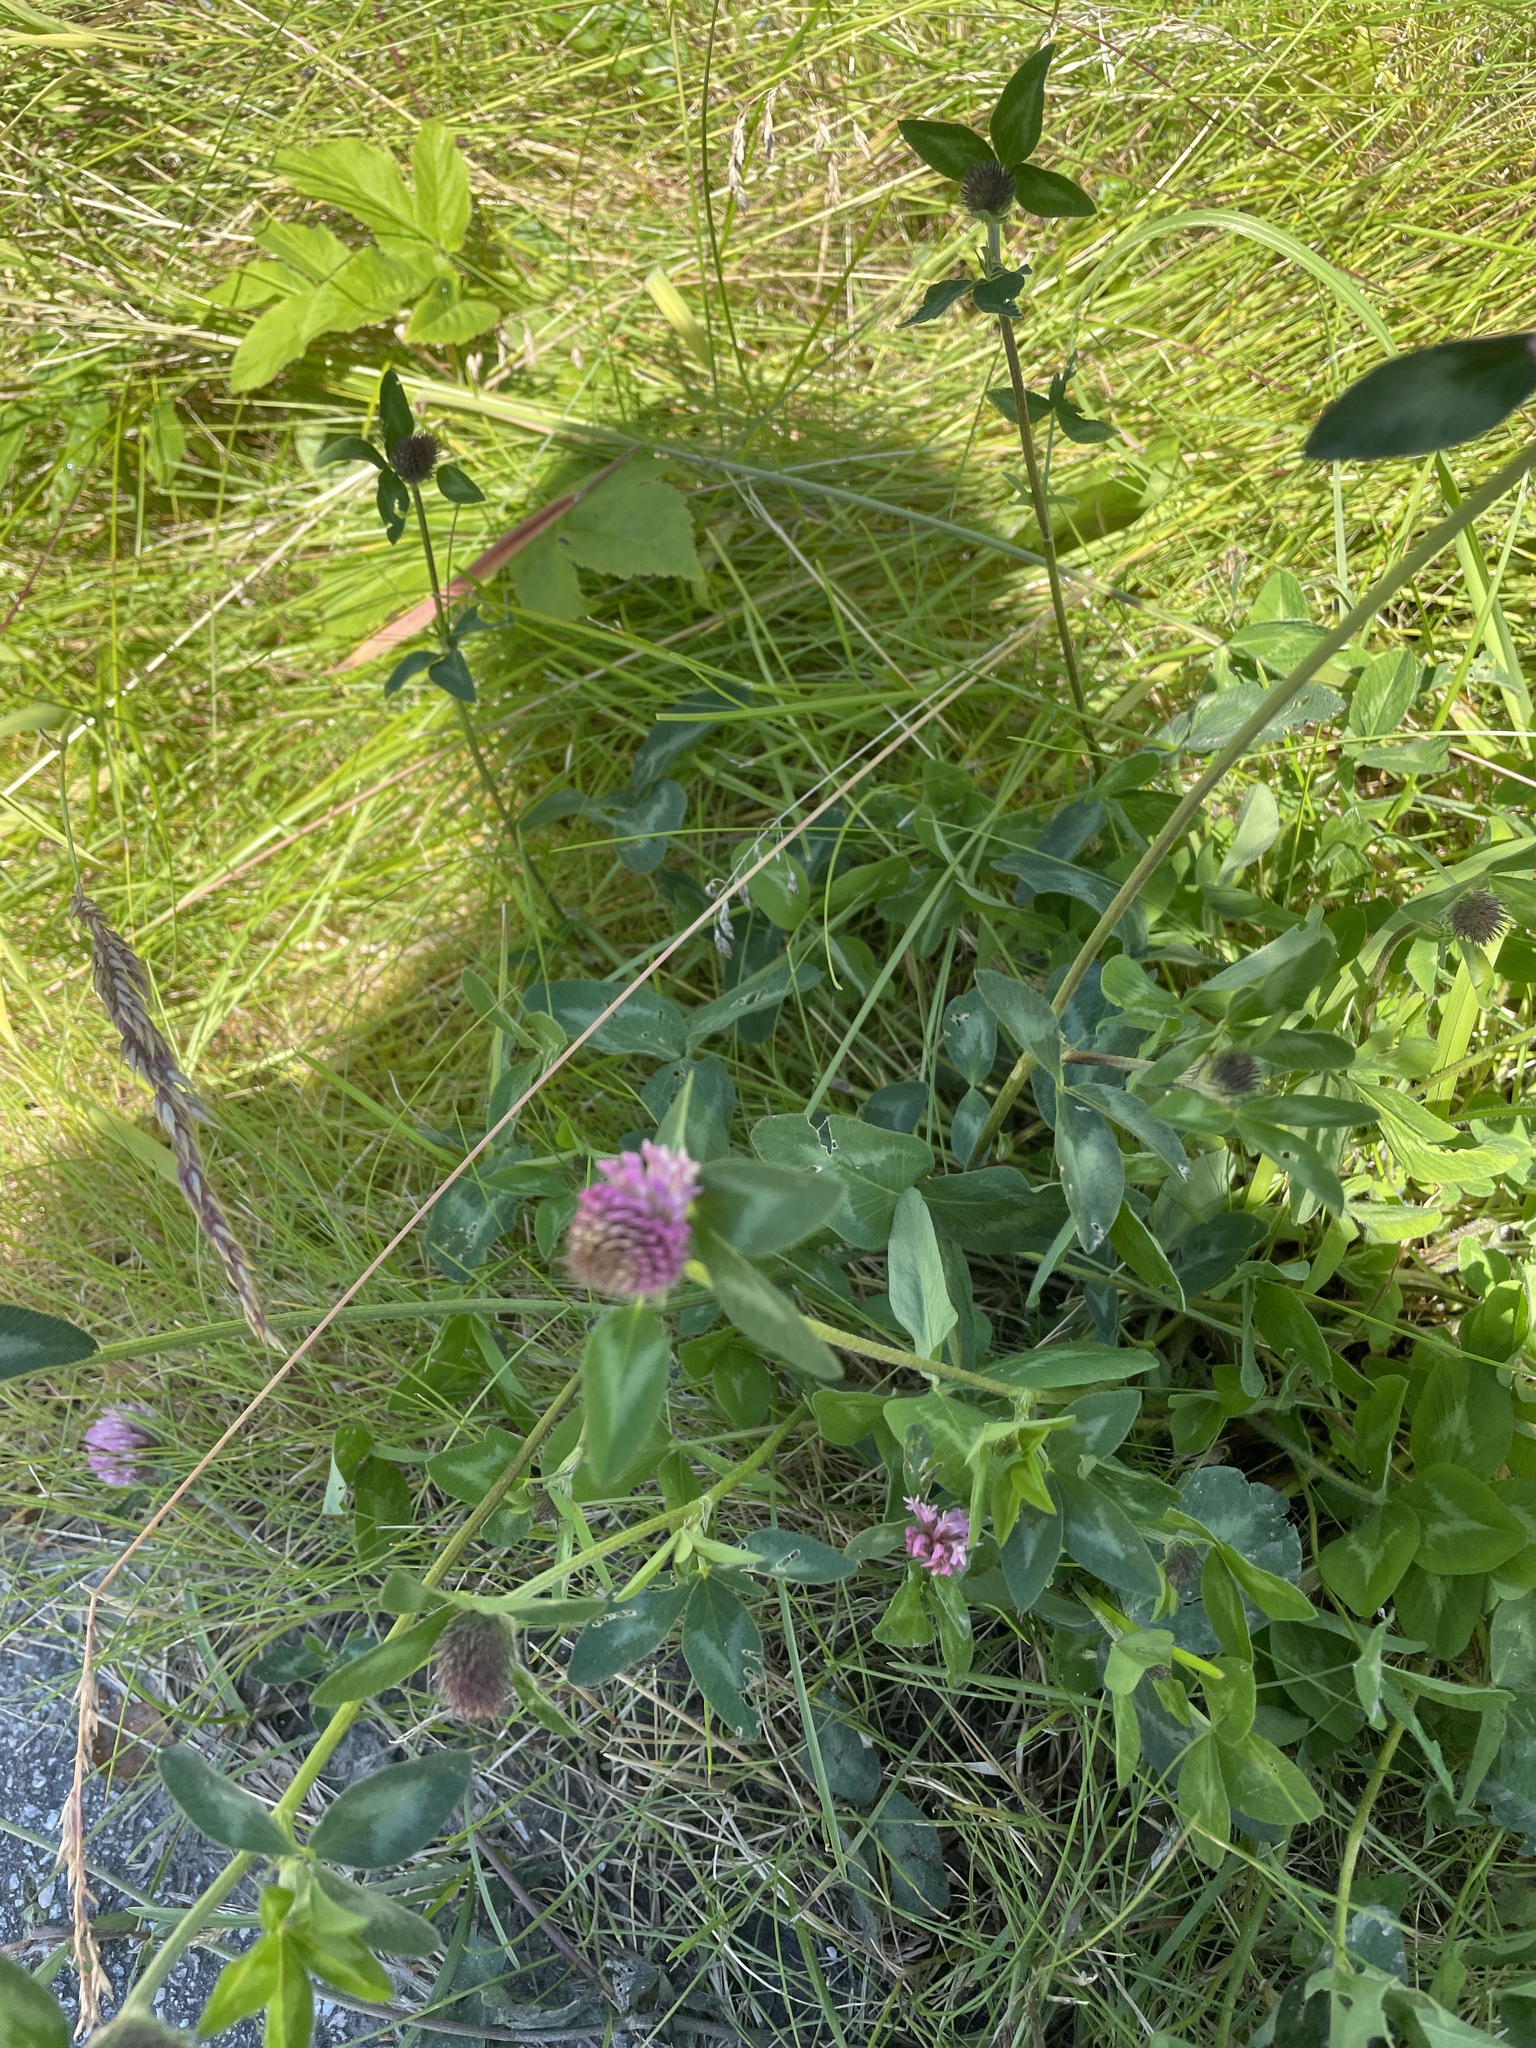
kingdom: Plantae
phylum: Tracheophyta
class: Magnoliopsida
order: Fabales
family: Fabaceae
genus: Trifolium
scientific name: Trifolium pratense
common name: Red clover
